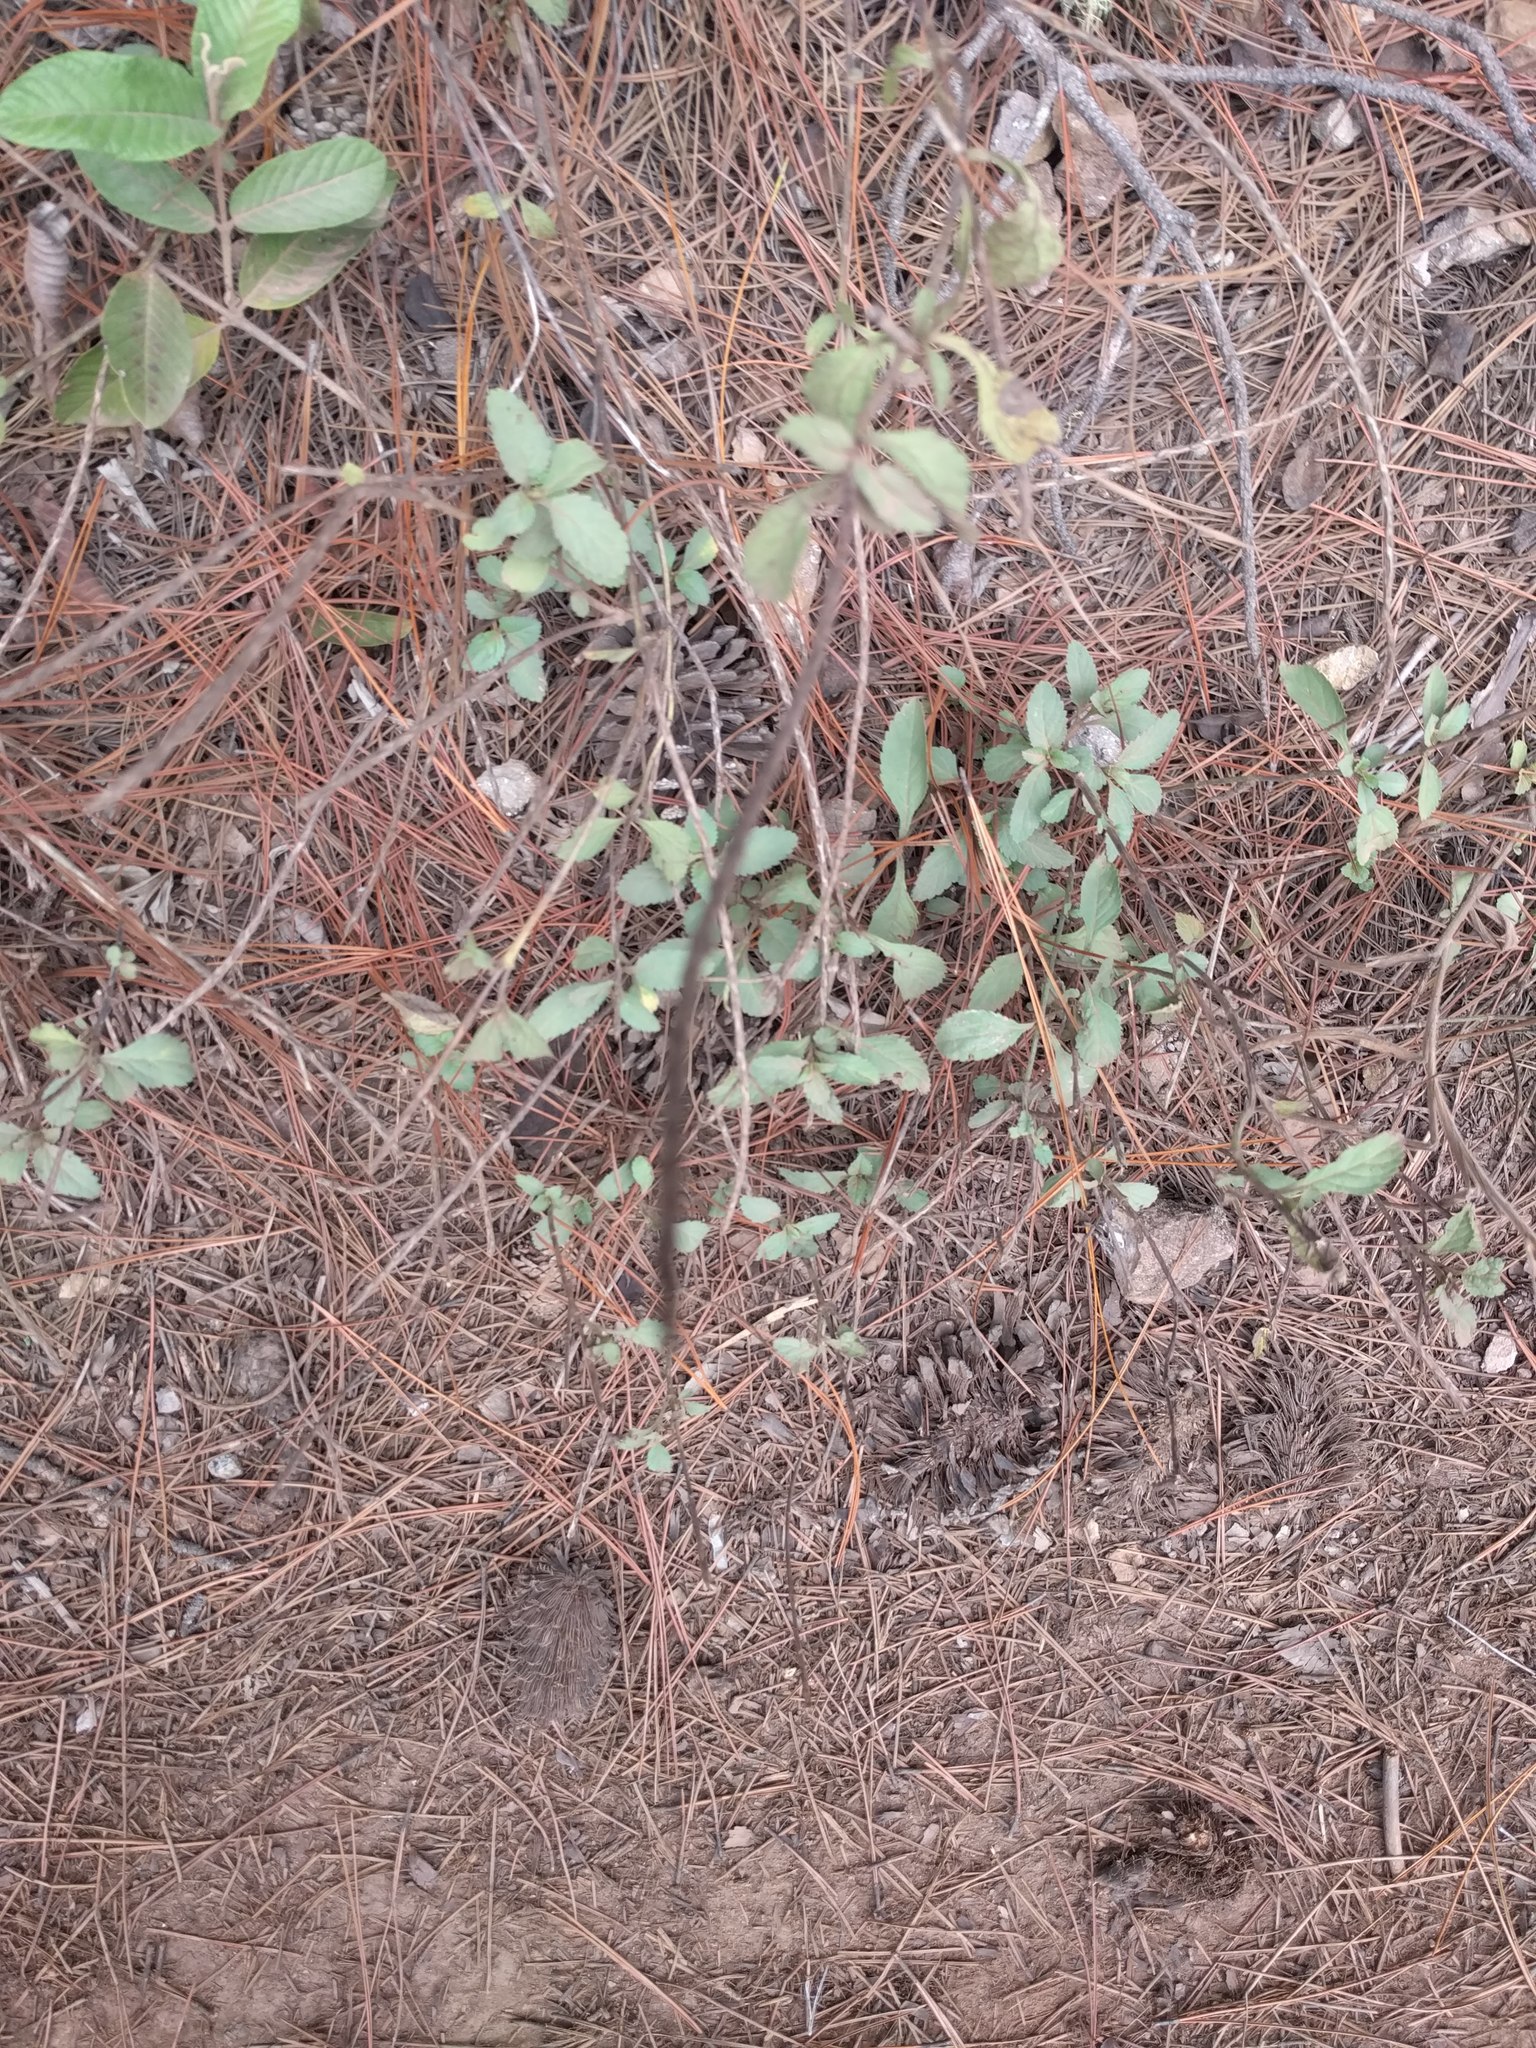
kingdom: Plantae
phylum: Tracheophyta
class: Magnoliopsida
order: Malvales
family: Malvaceae
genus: Waltheria
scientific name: Waltheria indica
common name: Leather-coat
